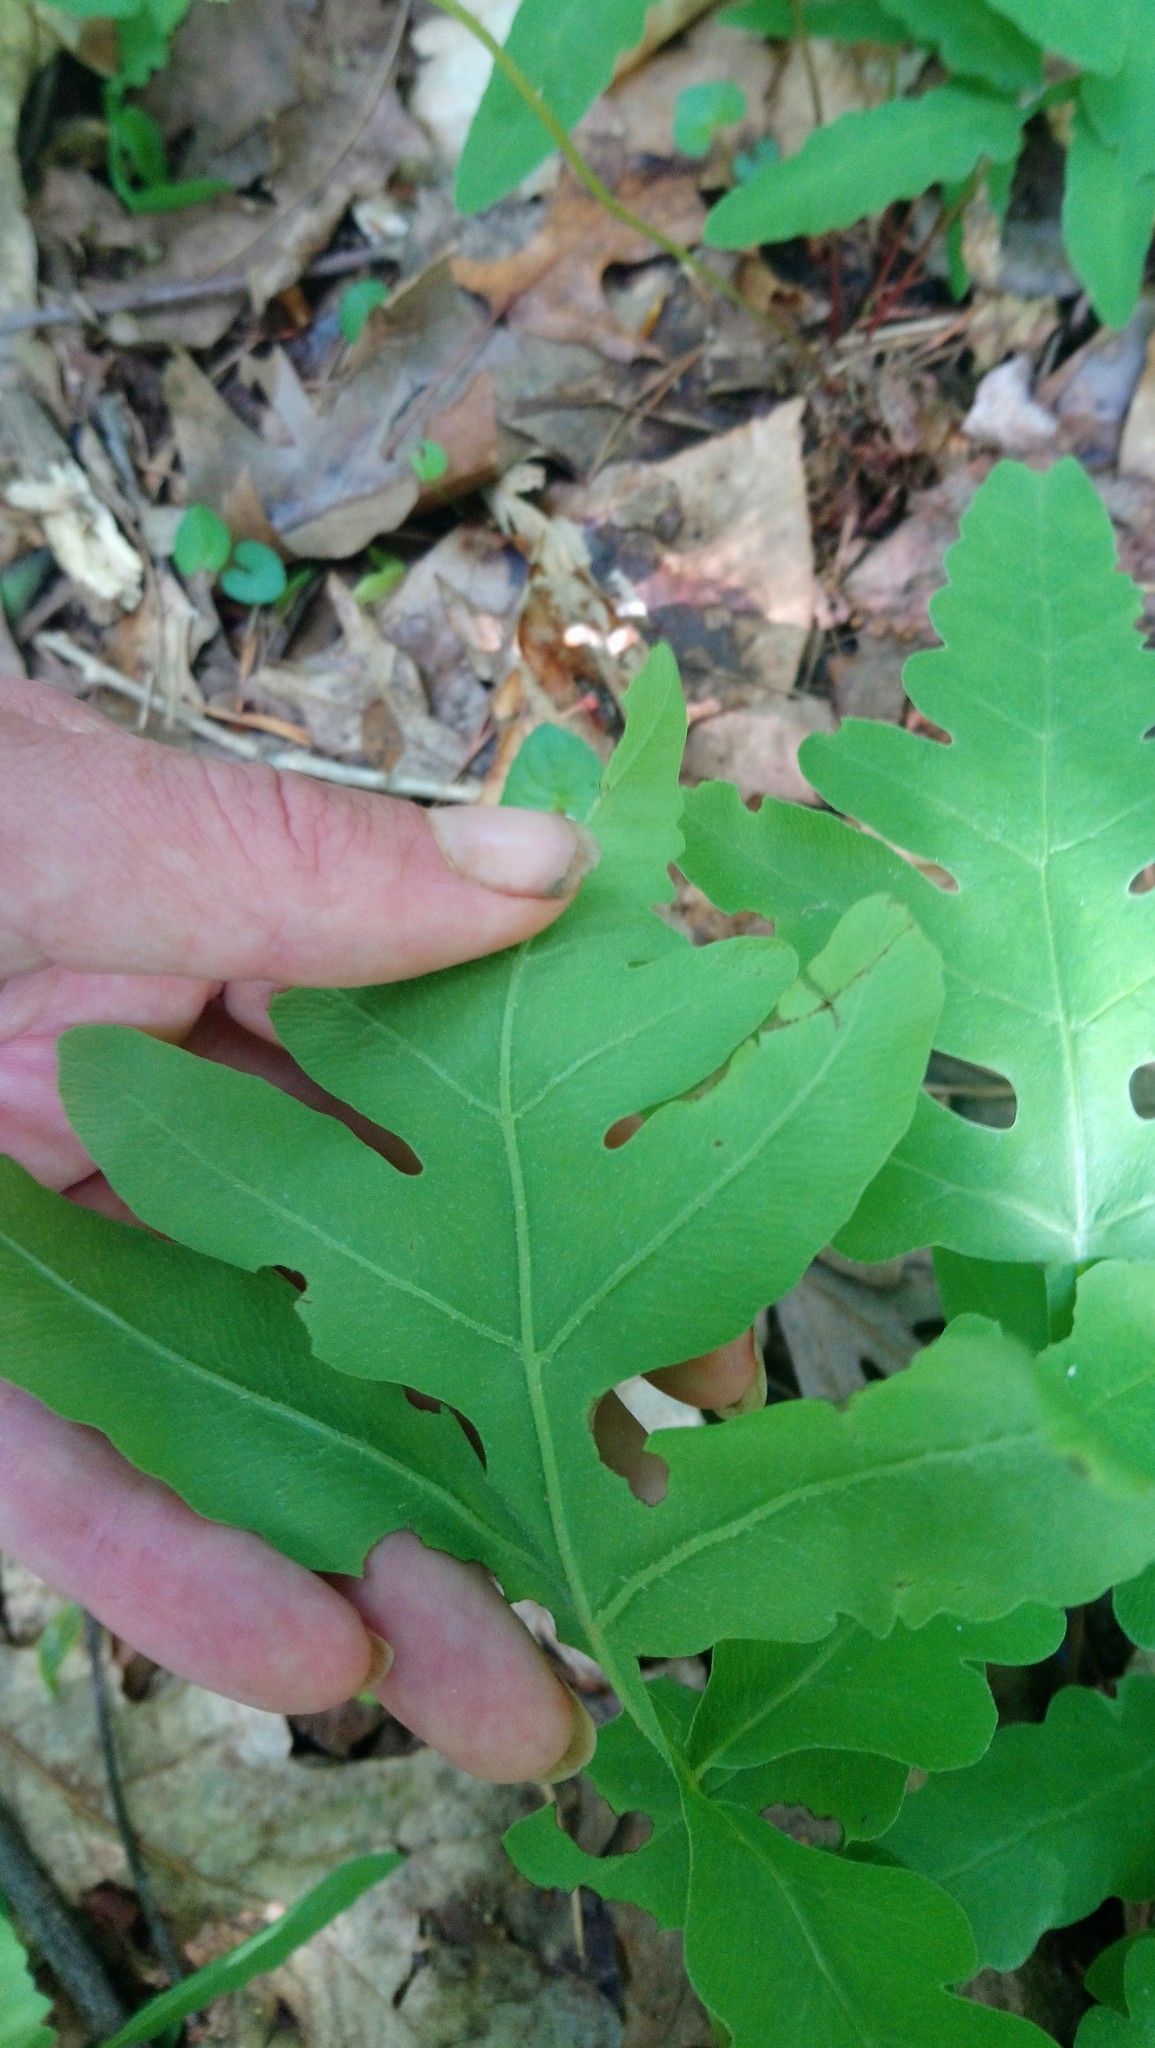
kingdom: Plantae
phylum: Tracheophyta
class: Polypodiopsida
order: Polypodiales
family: Onocleaceae
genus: Onoclea
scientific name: Onoclea sensibilis
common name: Sensitive fern
